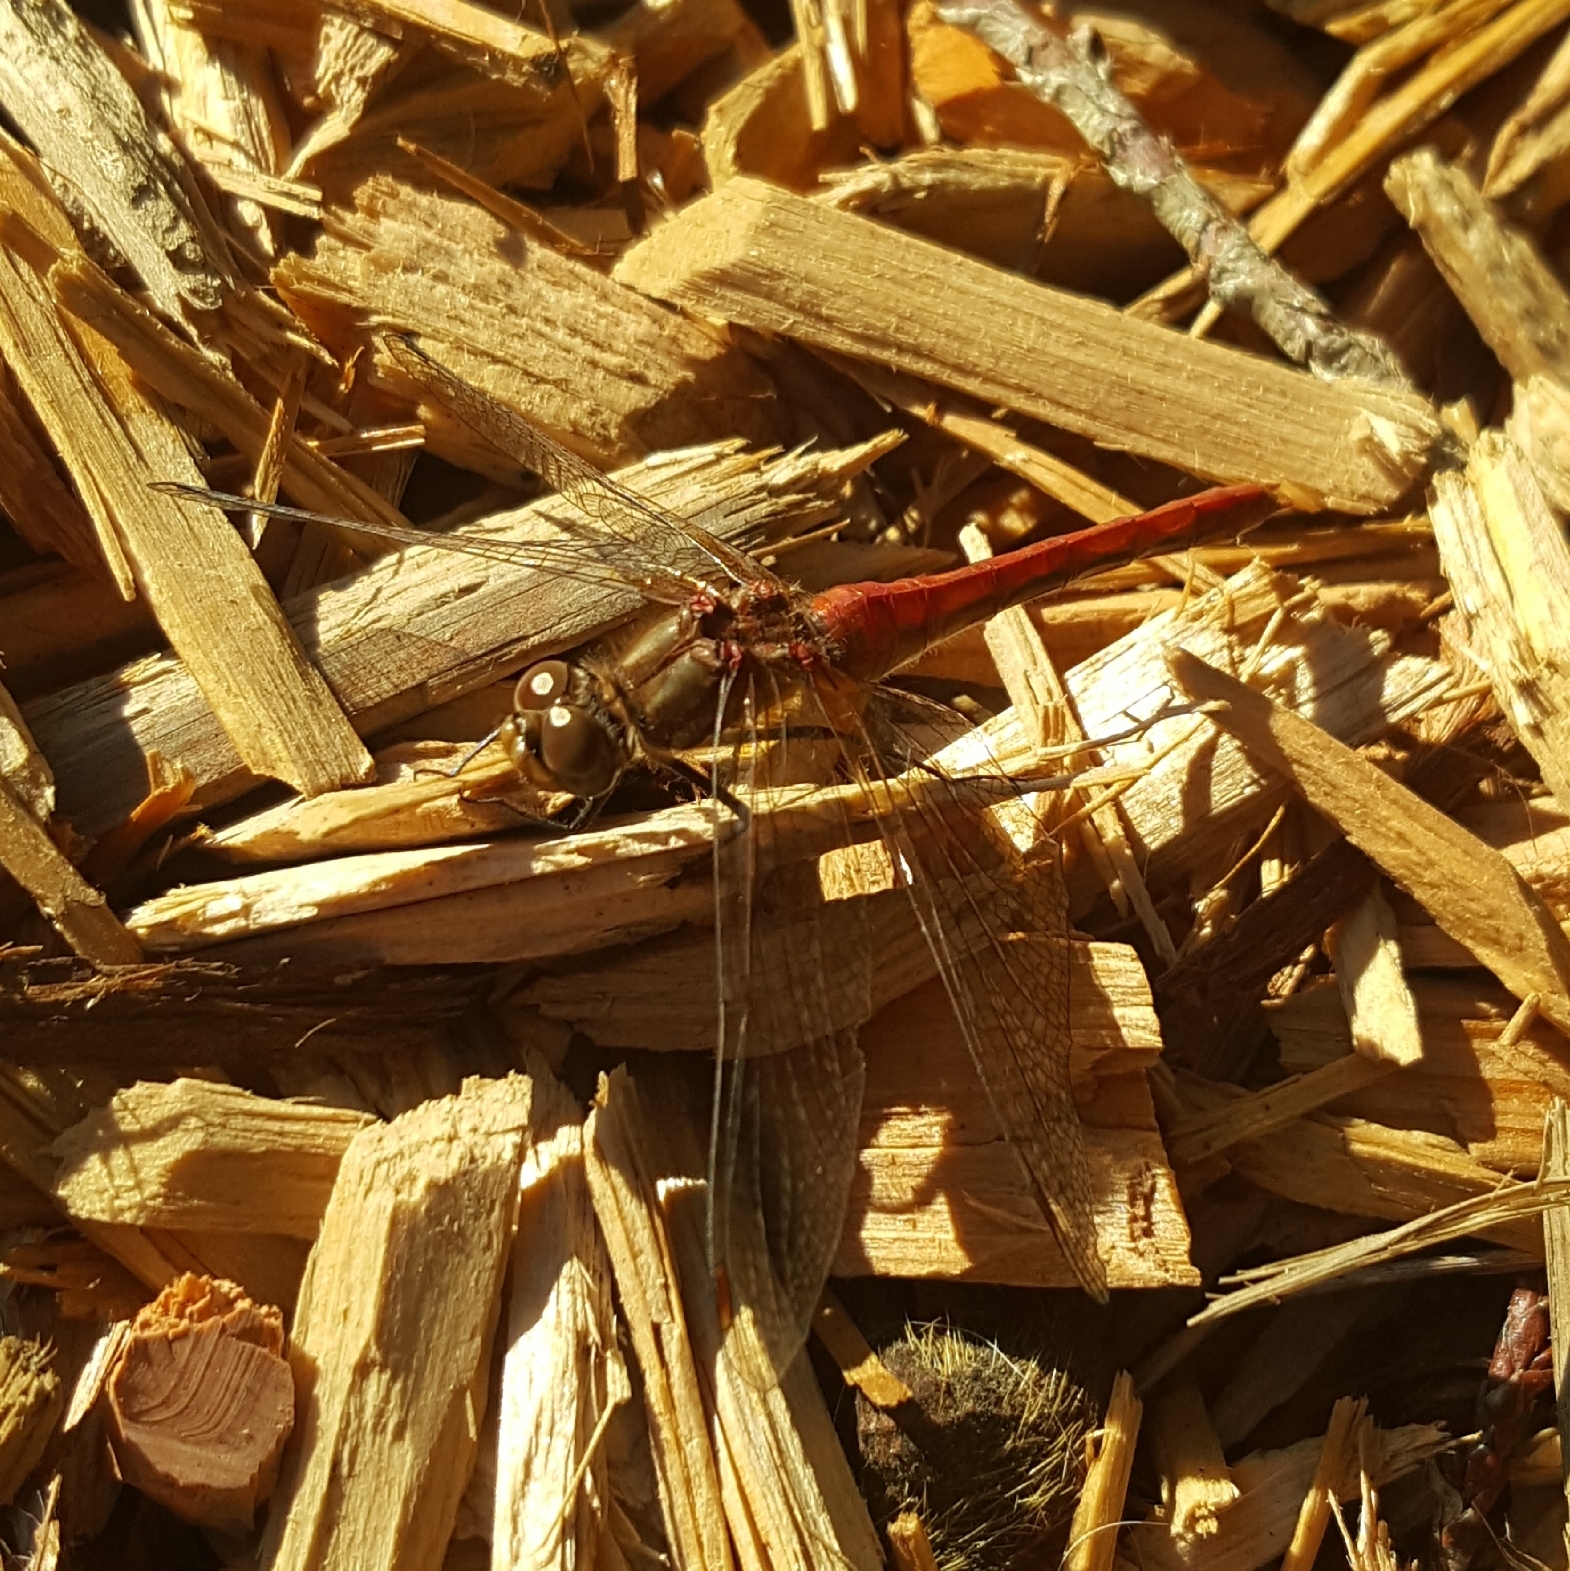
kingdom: Animalia
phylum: Arthropoda
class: Insecta
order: Odonata
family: Libellulidae
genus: Sympetrum
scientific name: Sympetrum pallipes
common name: Striped meadowhawk
